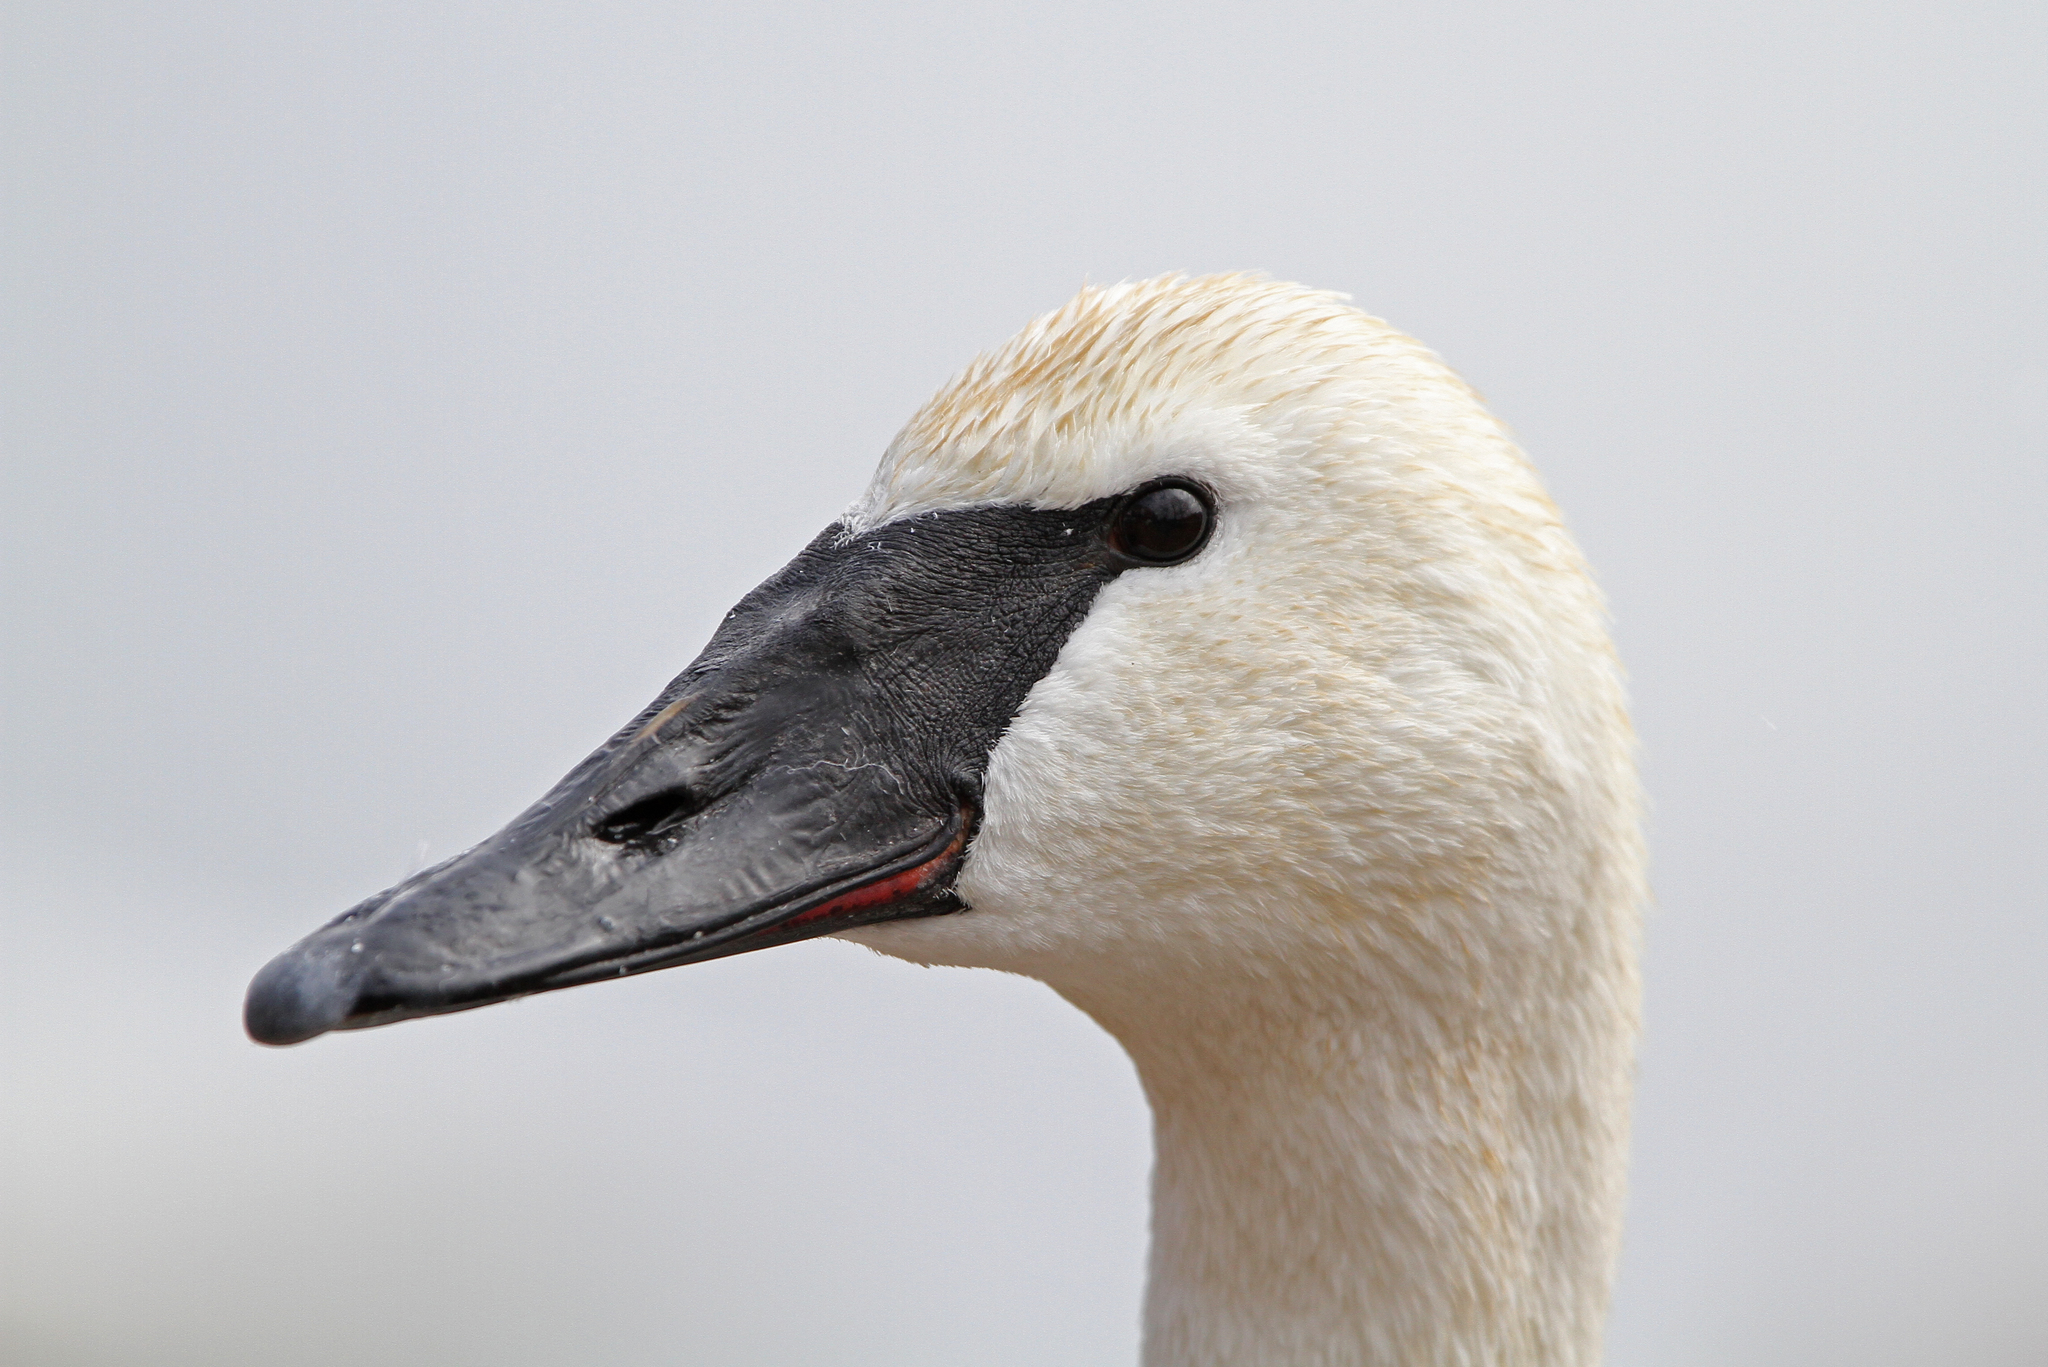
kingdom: Animalia
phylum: Chordata
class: Aves
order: Anseriformes
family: Anatidae
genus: Cygnus
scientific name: Cygnus buccinator
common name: Trumpeter swan
